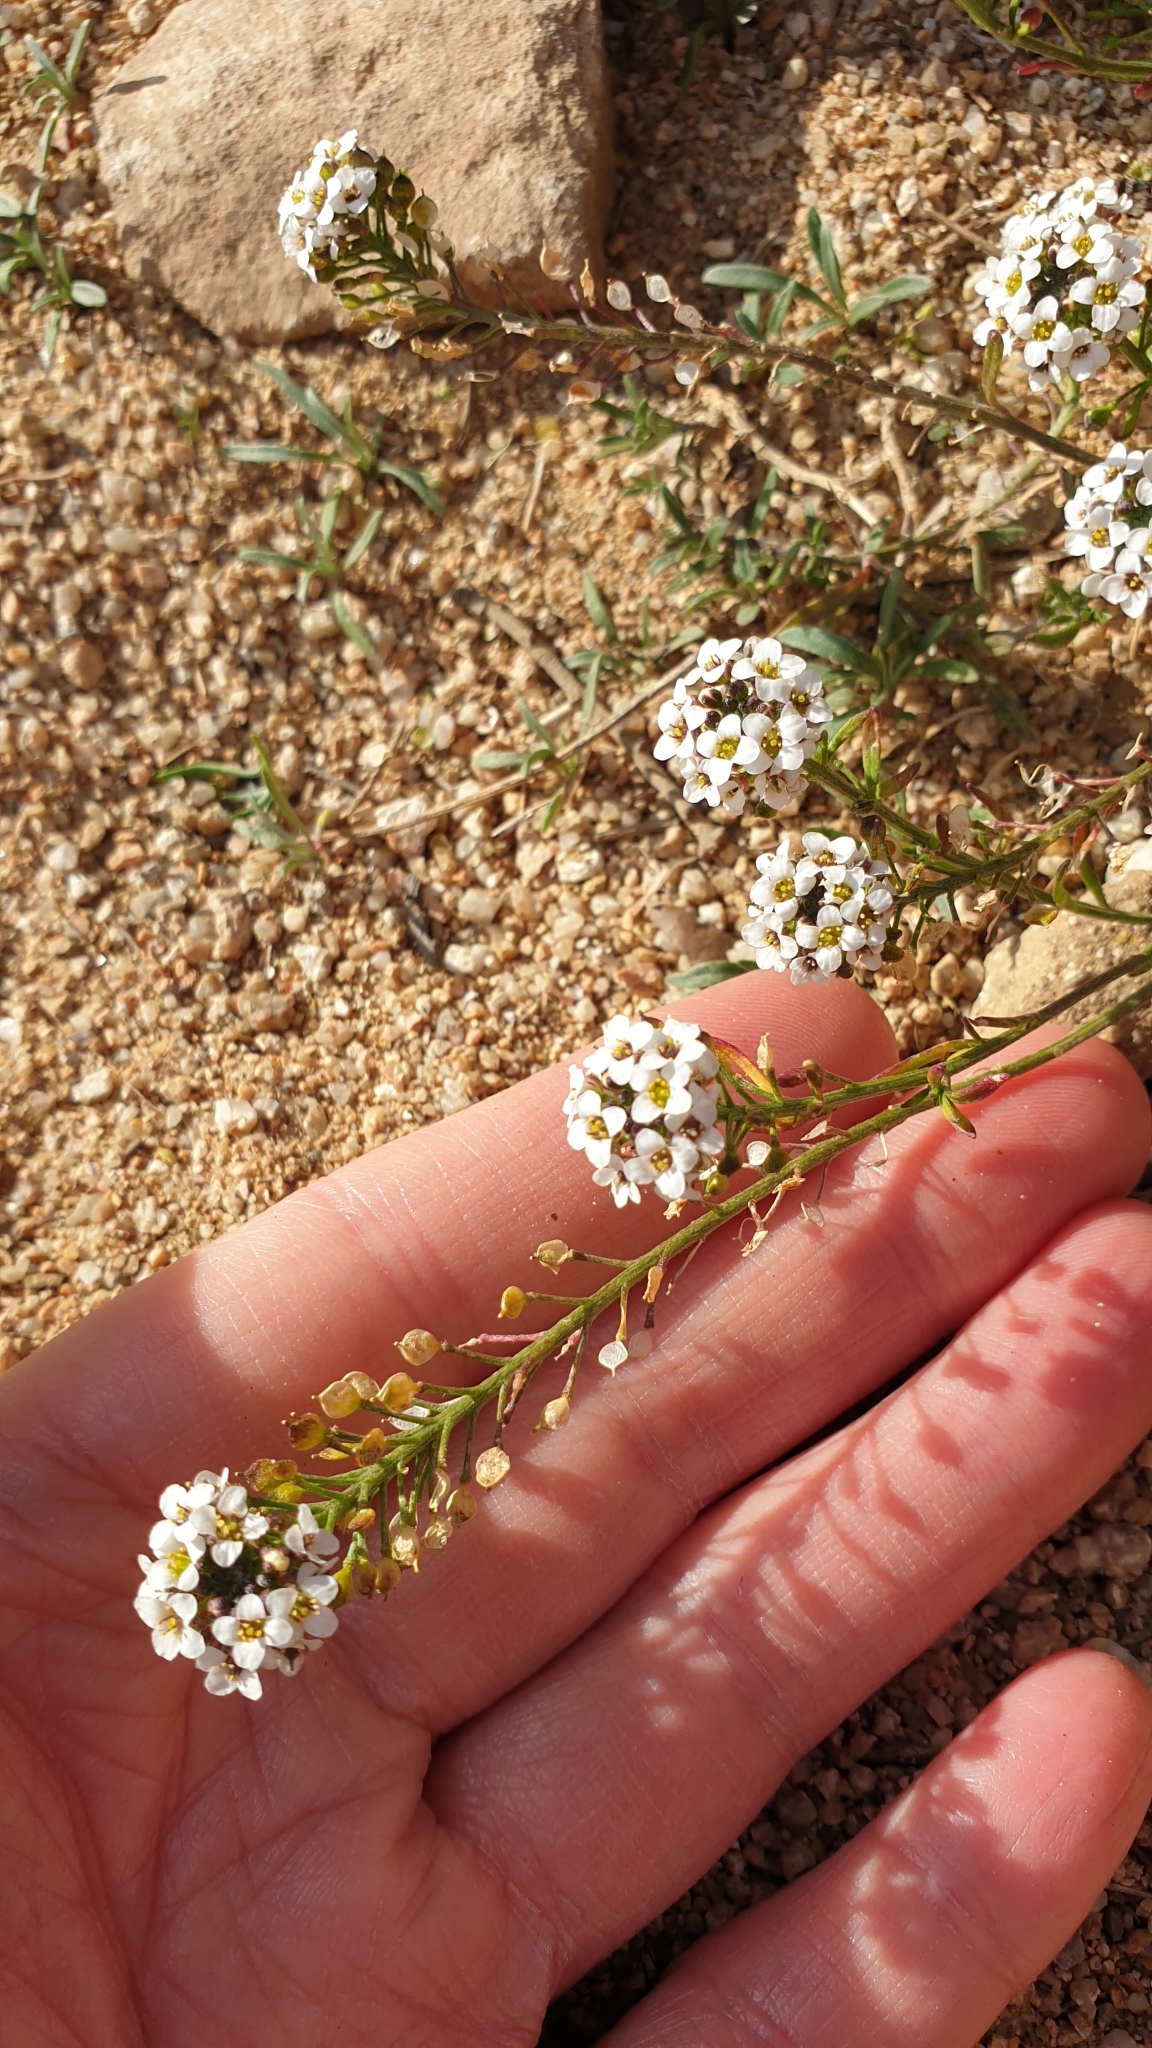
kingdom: Plantae
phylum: Tracheophyta
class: Magnoliopsida
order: Brassicales
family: Brassicaceae
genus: Lobularia
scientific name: Lobularia maritima
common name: Sweet alison
